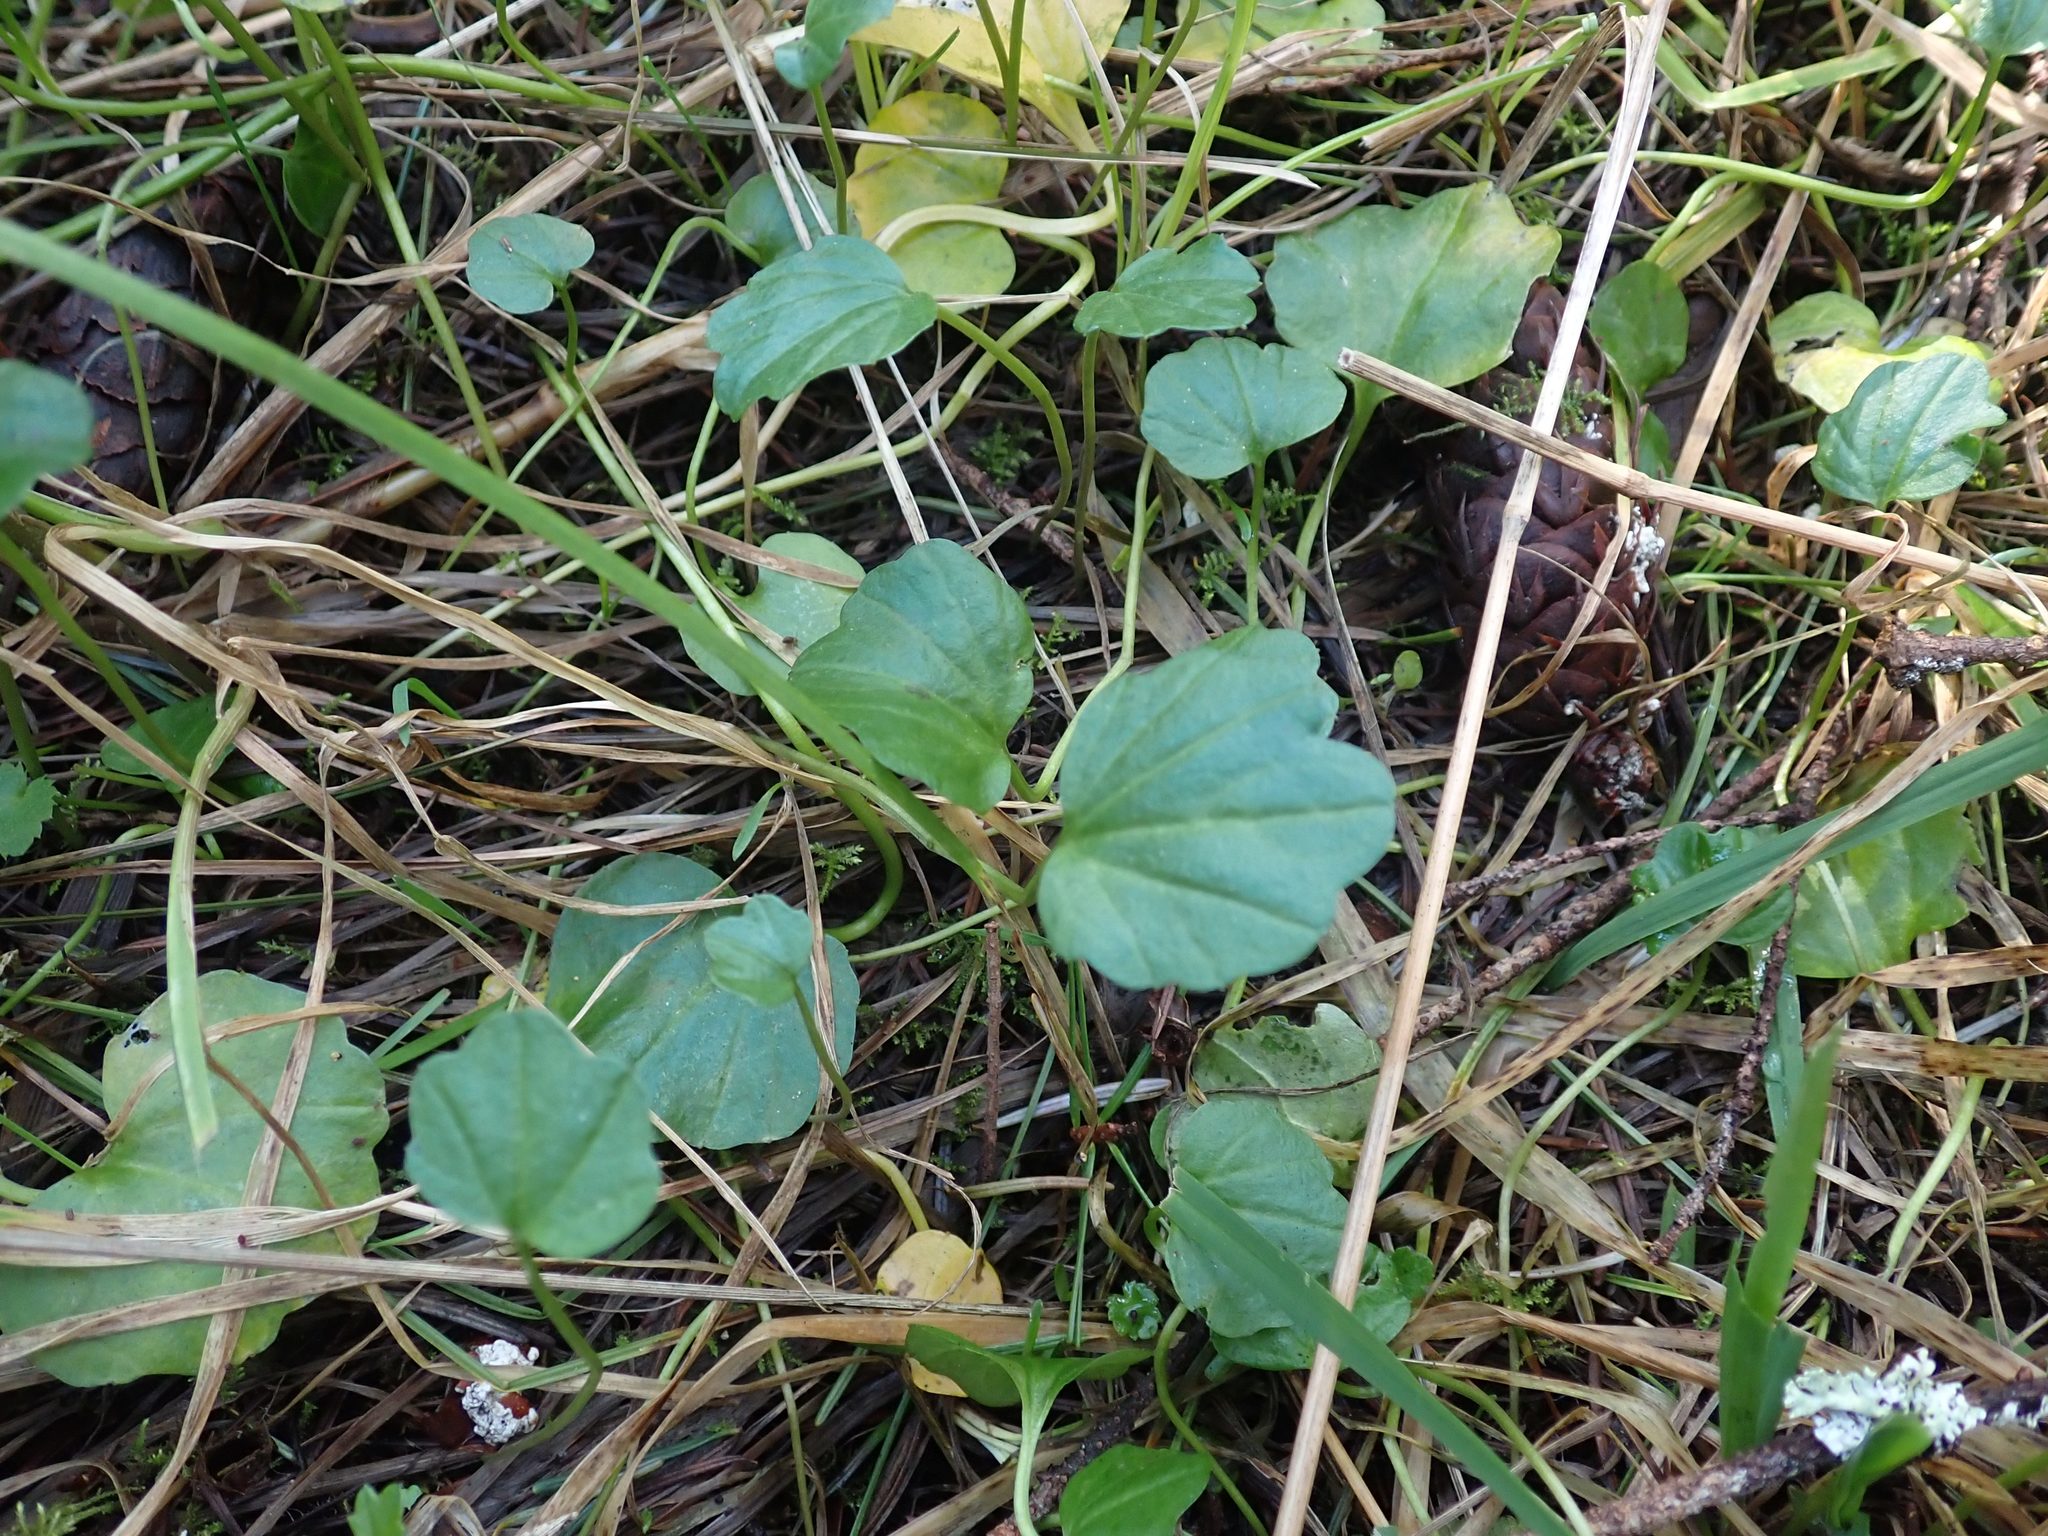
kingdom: Plantae
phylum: Tracheophyta
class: Magnoliopsida
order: Brassicales
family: Brassicaceae
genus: Cardamine
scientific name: Cardamine nuttallii
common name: Nuttall's toothwort
